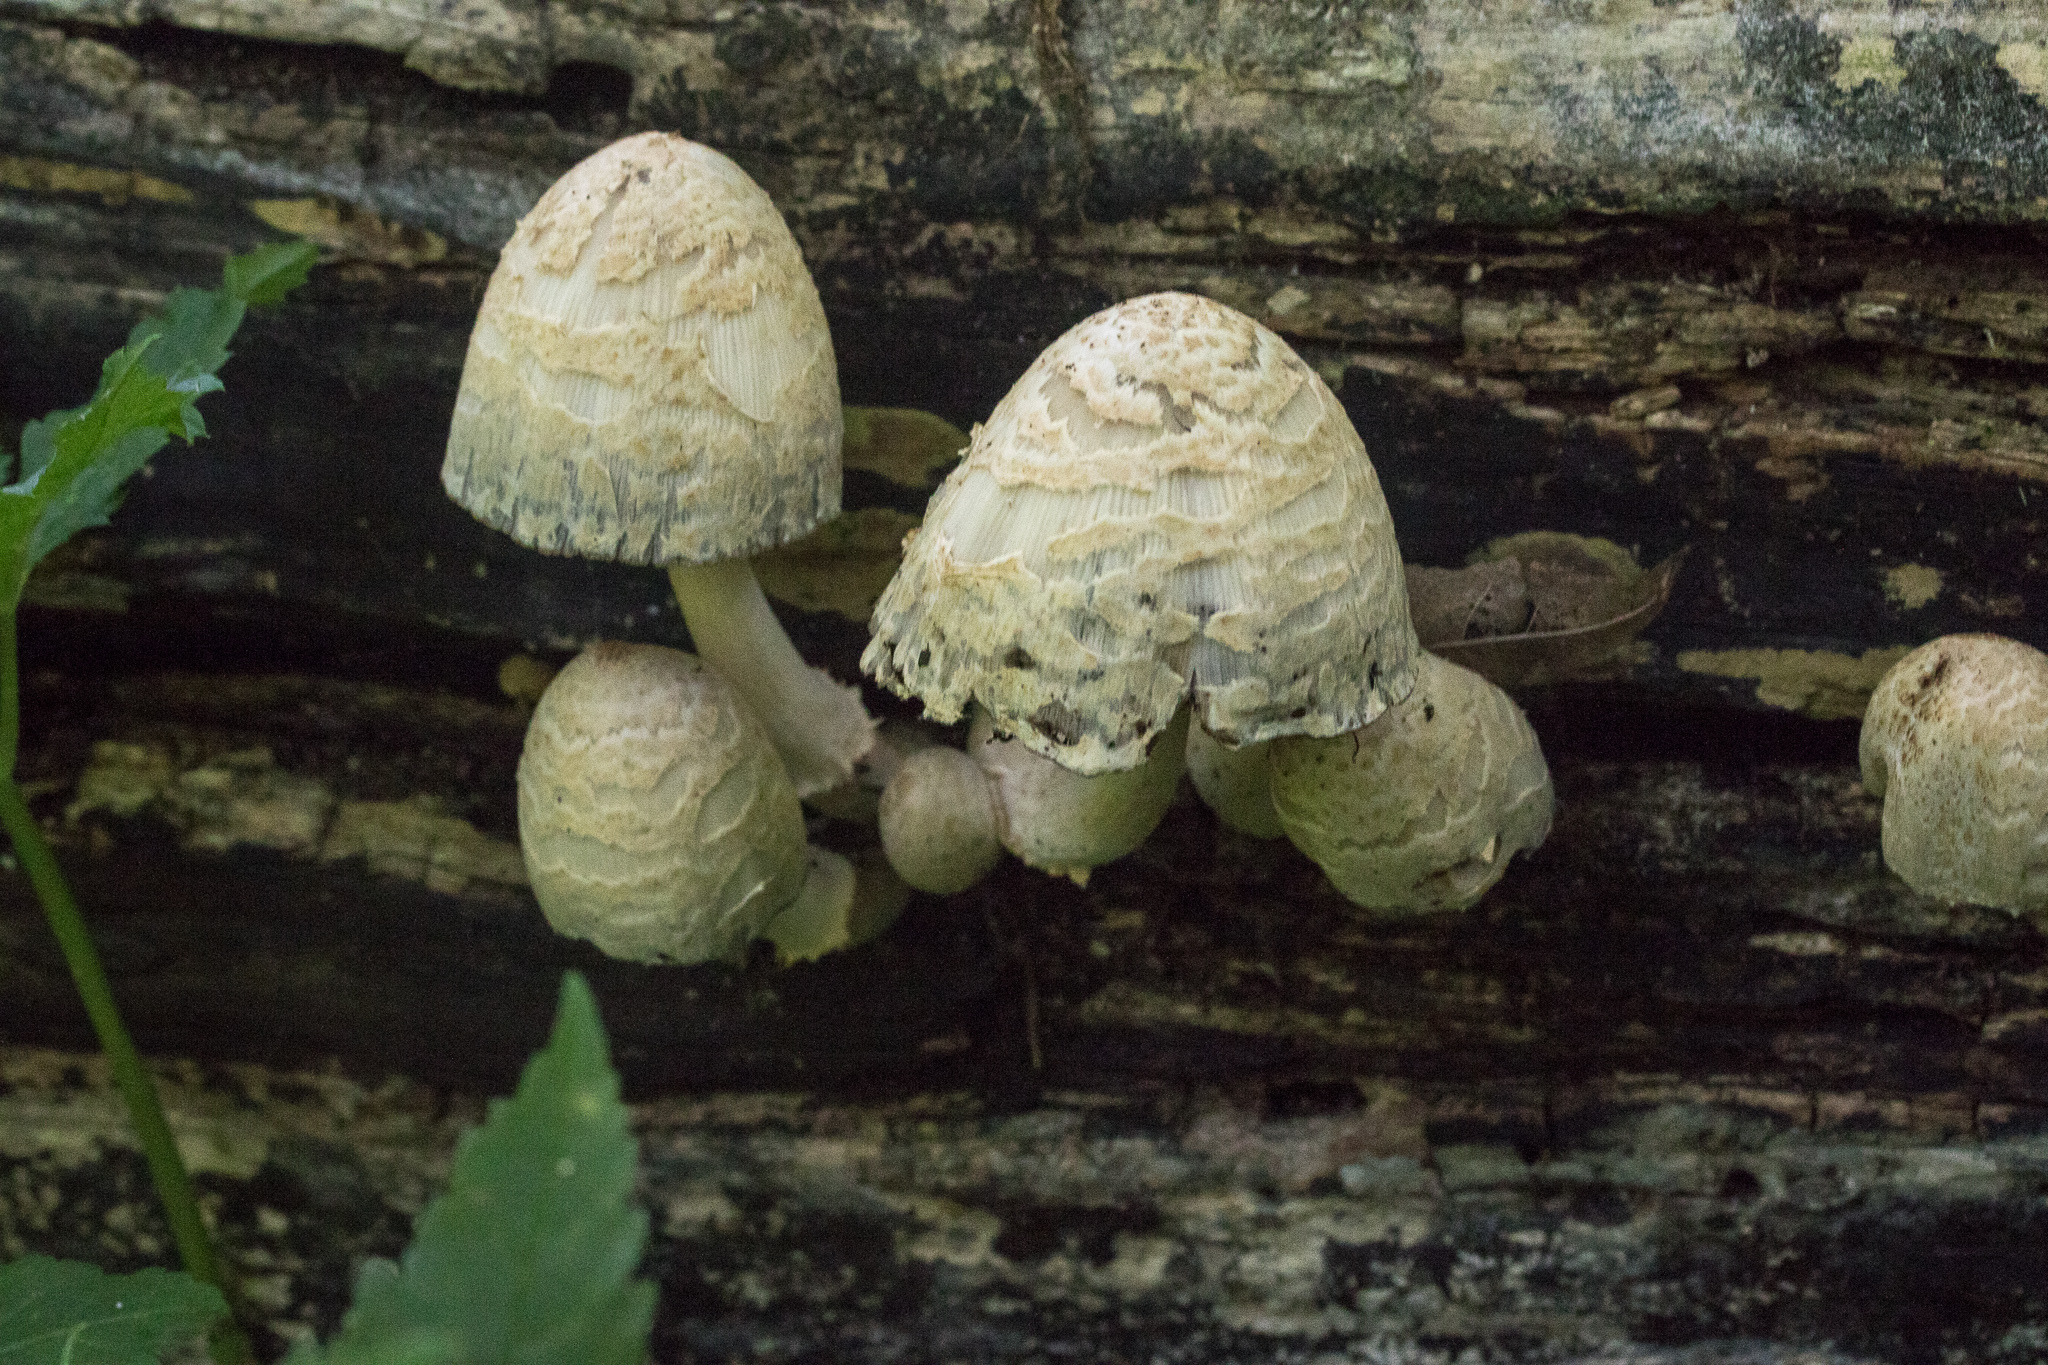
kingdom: Fungi
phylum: Basidiomycota
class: Agaricomycetes
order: Agaricales
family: Psathyrellaceae
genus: Coprinopsis
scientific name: Coprinopsis variegata
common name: Scaly ink cap
